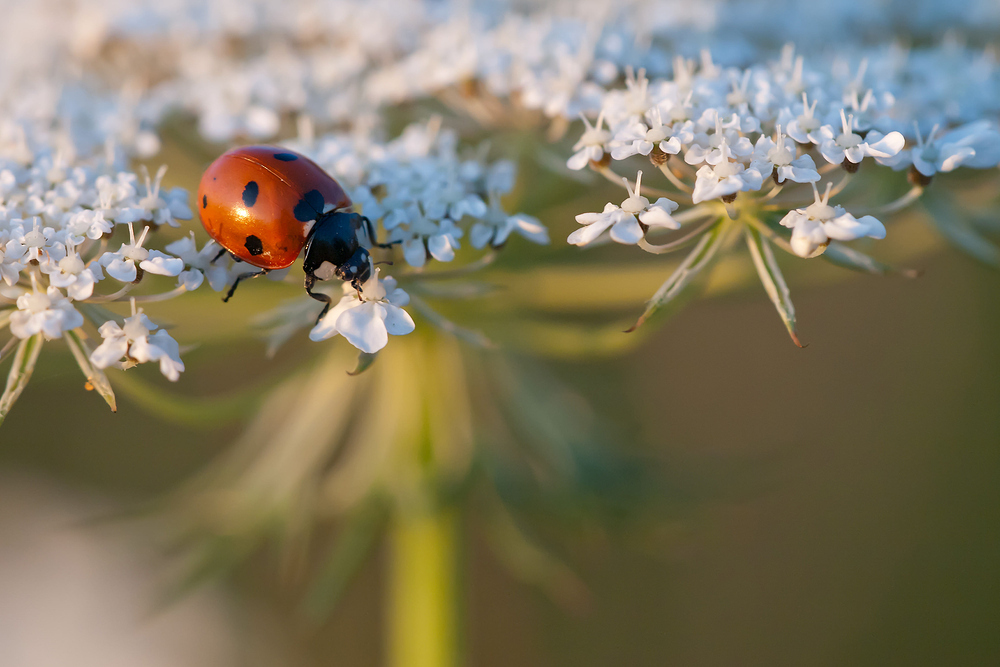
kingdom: Animalia
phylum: Arthropoda
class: Insecta
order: Coleoptera
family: Coccinellidae
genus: Coccinella
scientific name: Coccinella septempunctata
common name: Sevenspotted lady beetle
